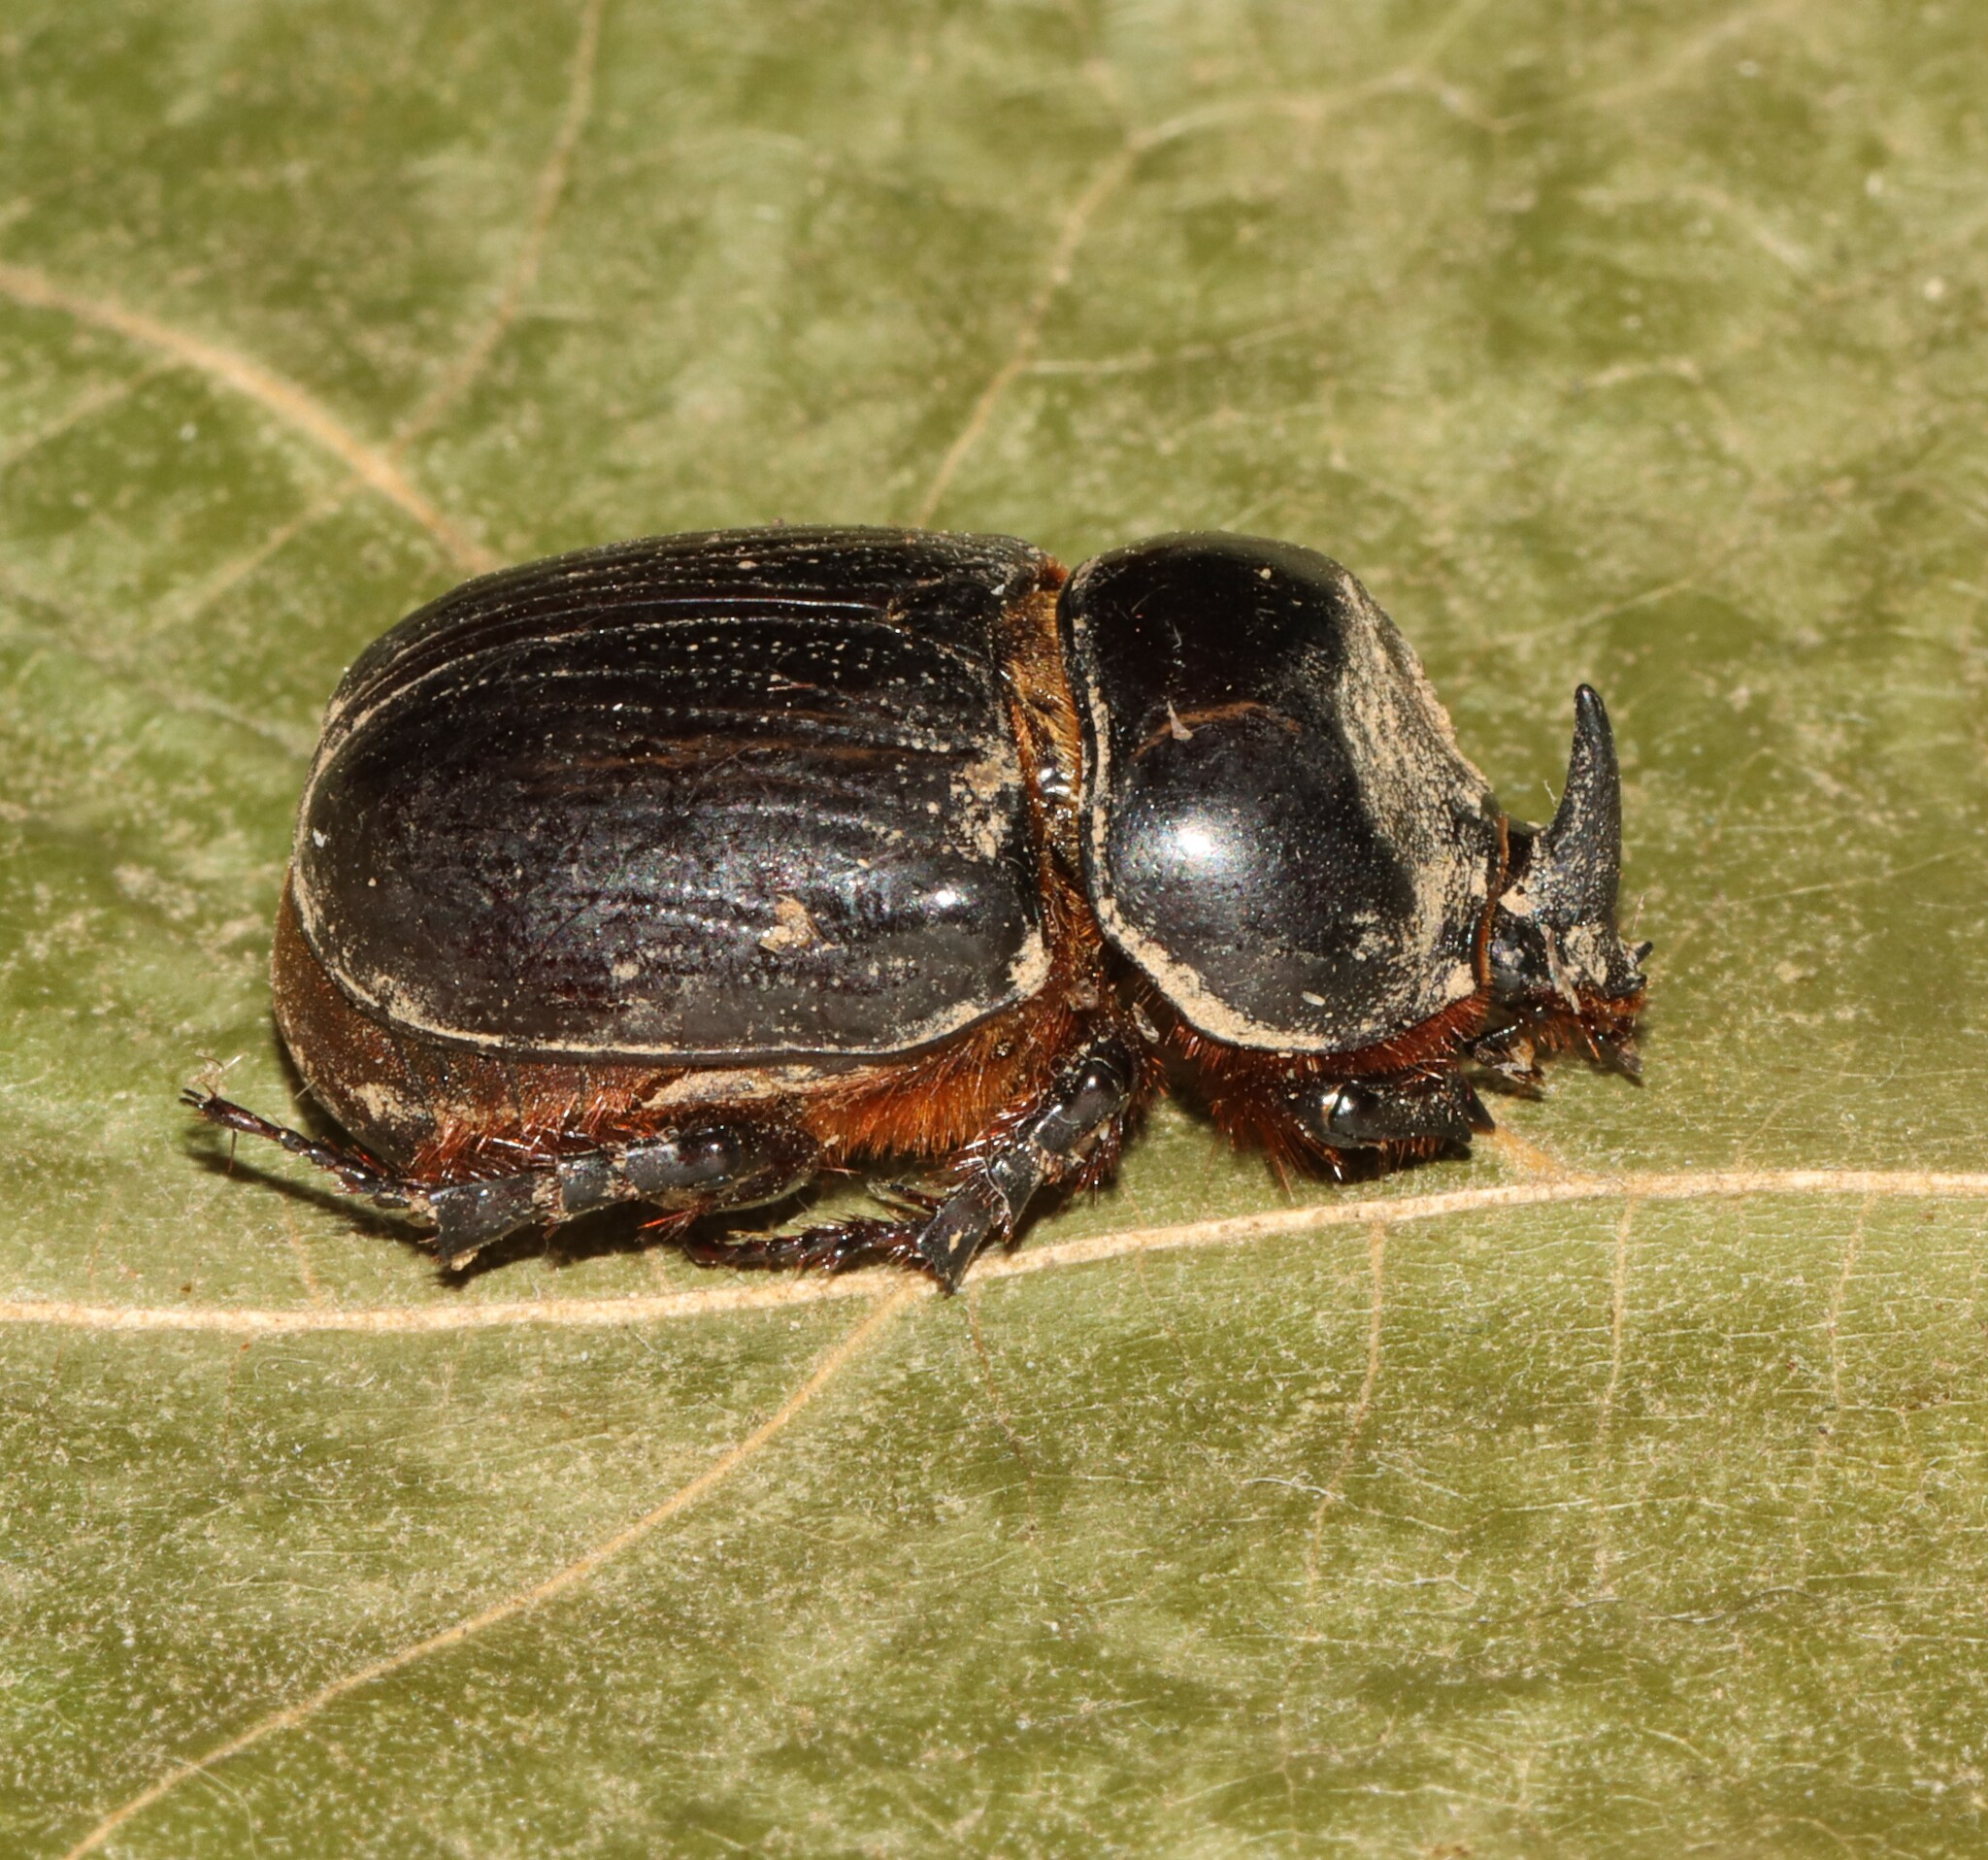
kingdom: Animalia
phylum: Arthropoda
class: Insecta
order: Coleoptera
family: Scarabaeidae
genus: Xyloryctes
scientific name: Xyloryctes jamaicensis
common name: Eastern rhinoceros beetle
